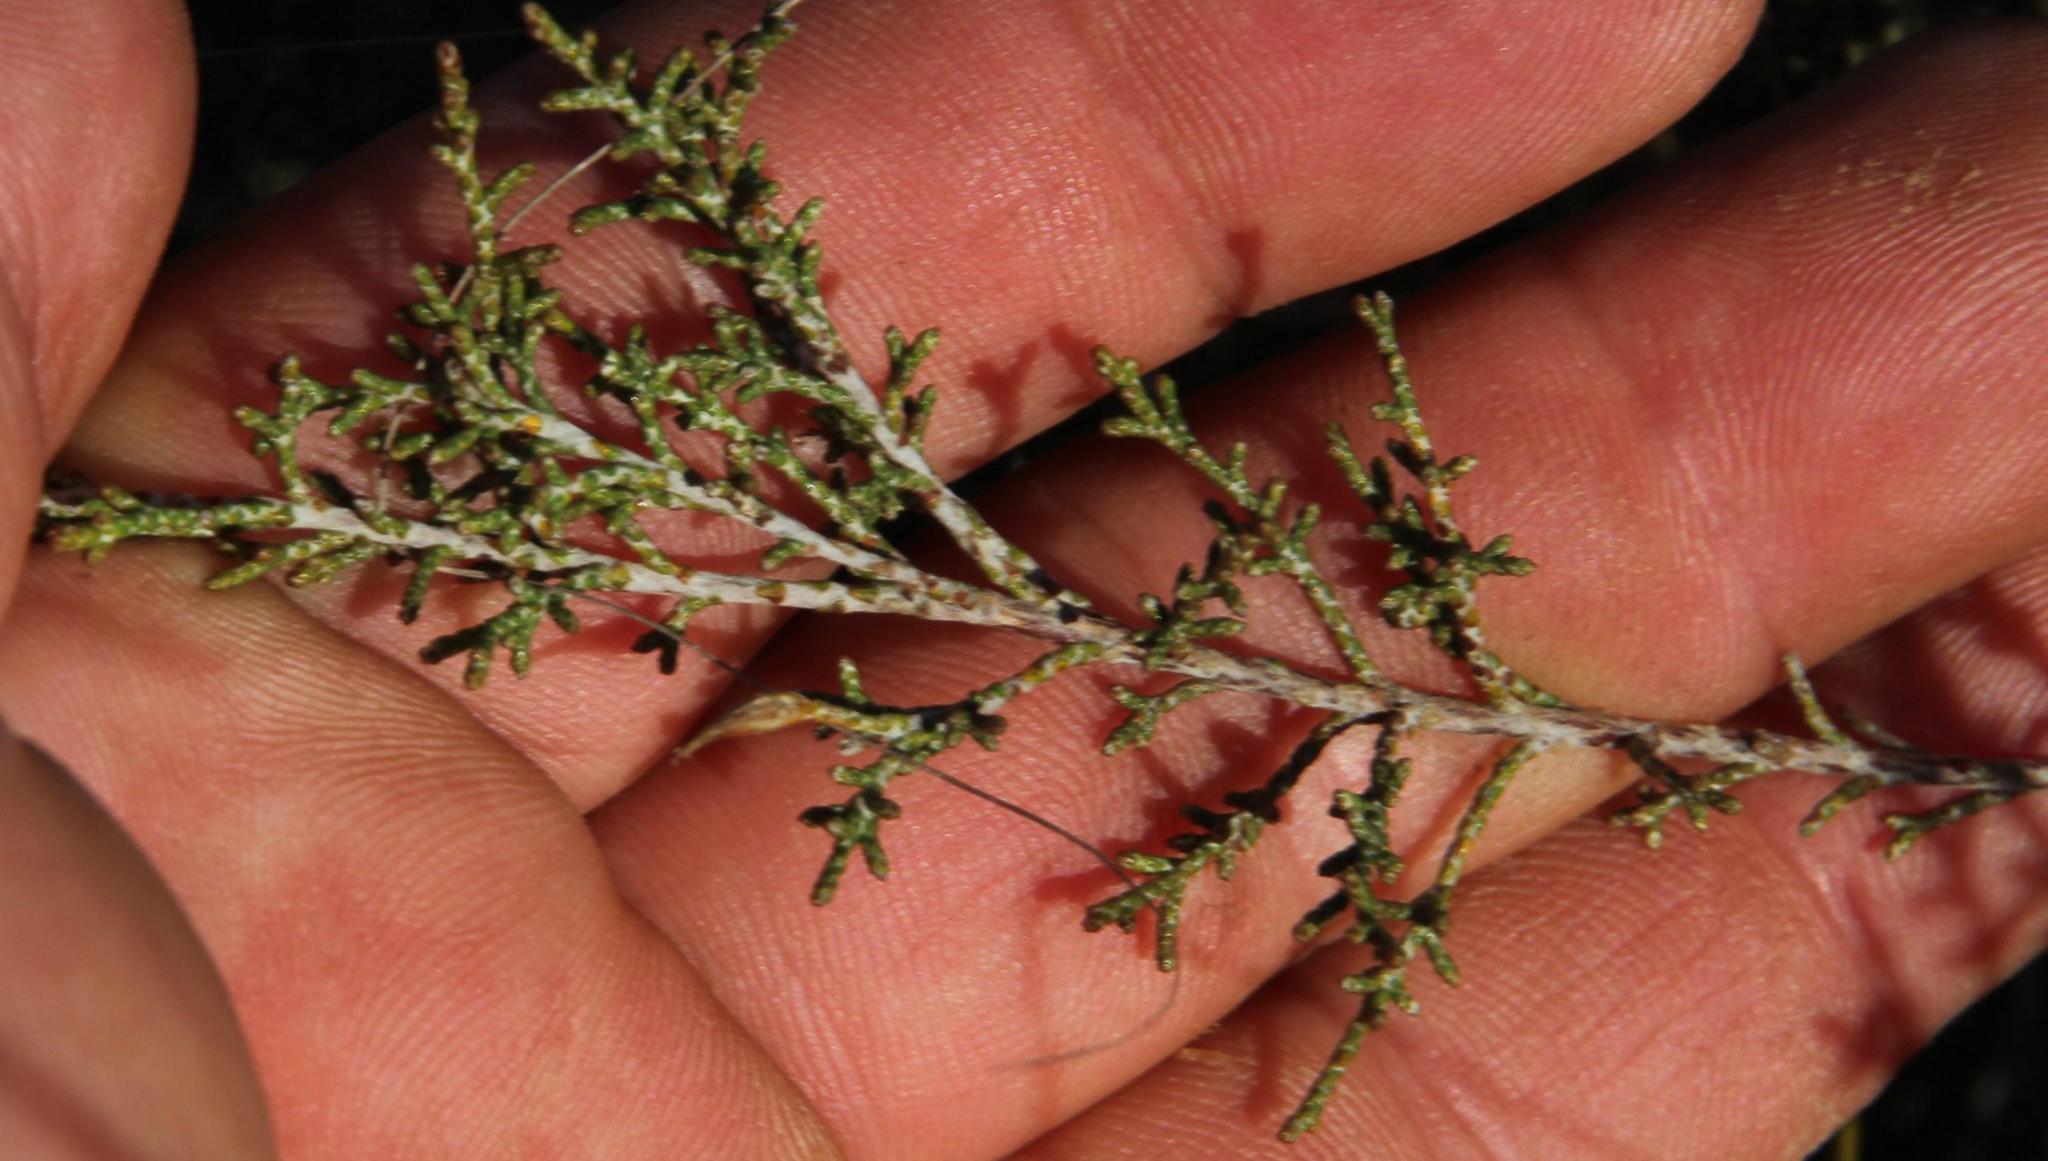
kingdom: Plantae
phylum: Tracheophyta
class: Magnoliopsida
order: Asterales
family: Asteraceae
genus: Dicerothamnus
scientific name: Dicerothamnus rhinocerotis
